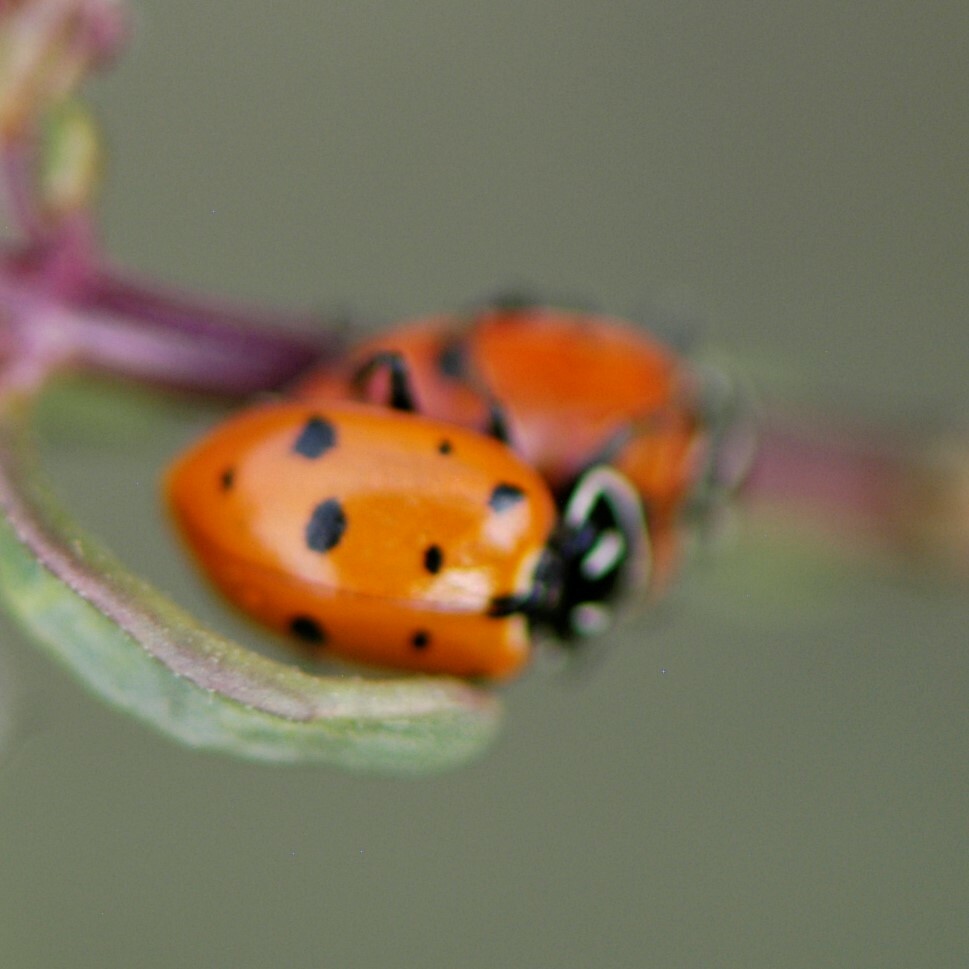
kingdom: Animalia
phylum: Arthropoda
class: Insecta
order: Coleoptera
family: Coccinellidae
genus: Hippodamia
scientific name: Hippodamia convergens
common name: Convergent lady beetle
